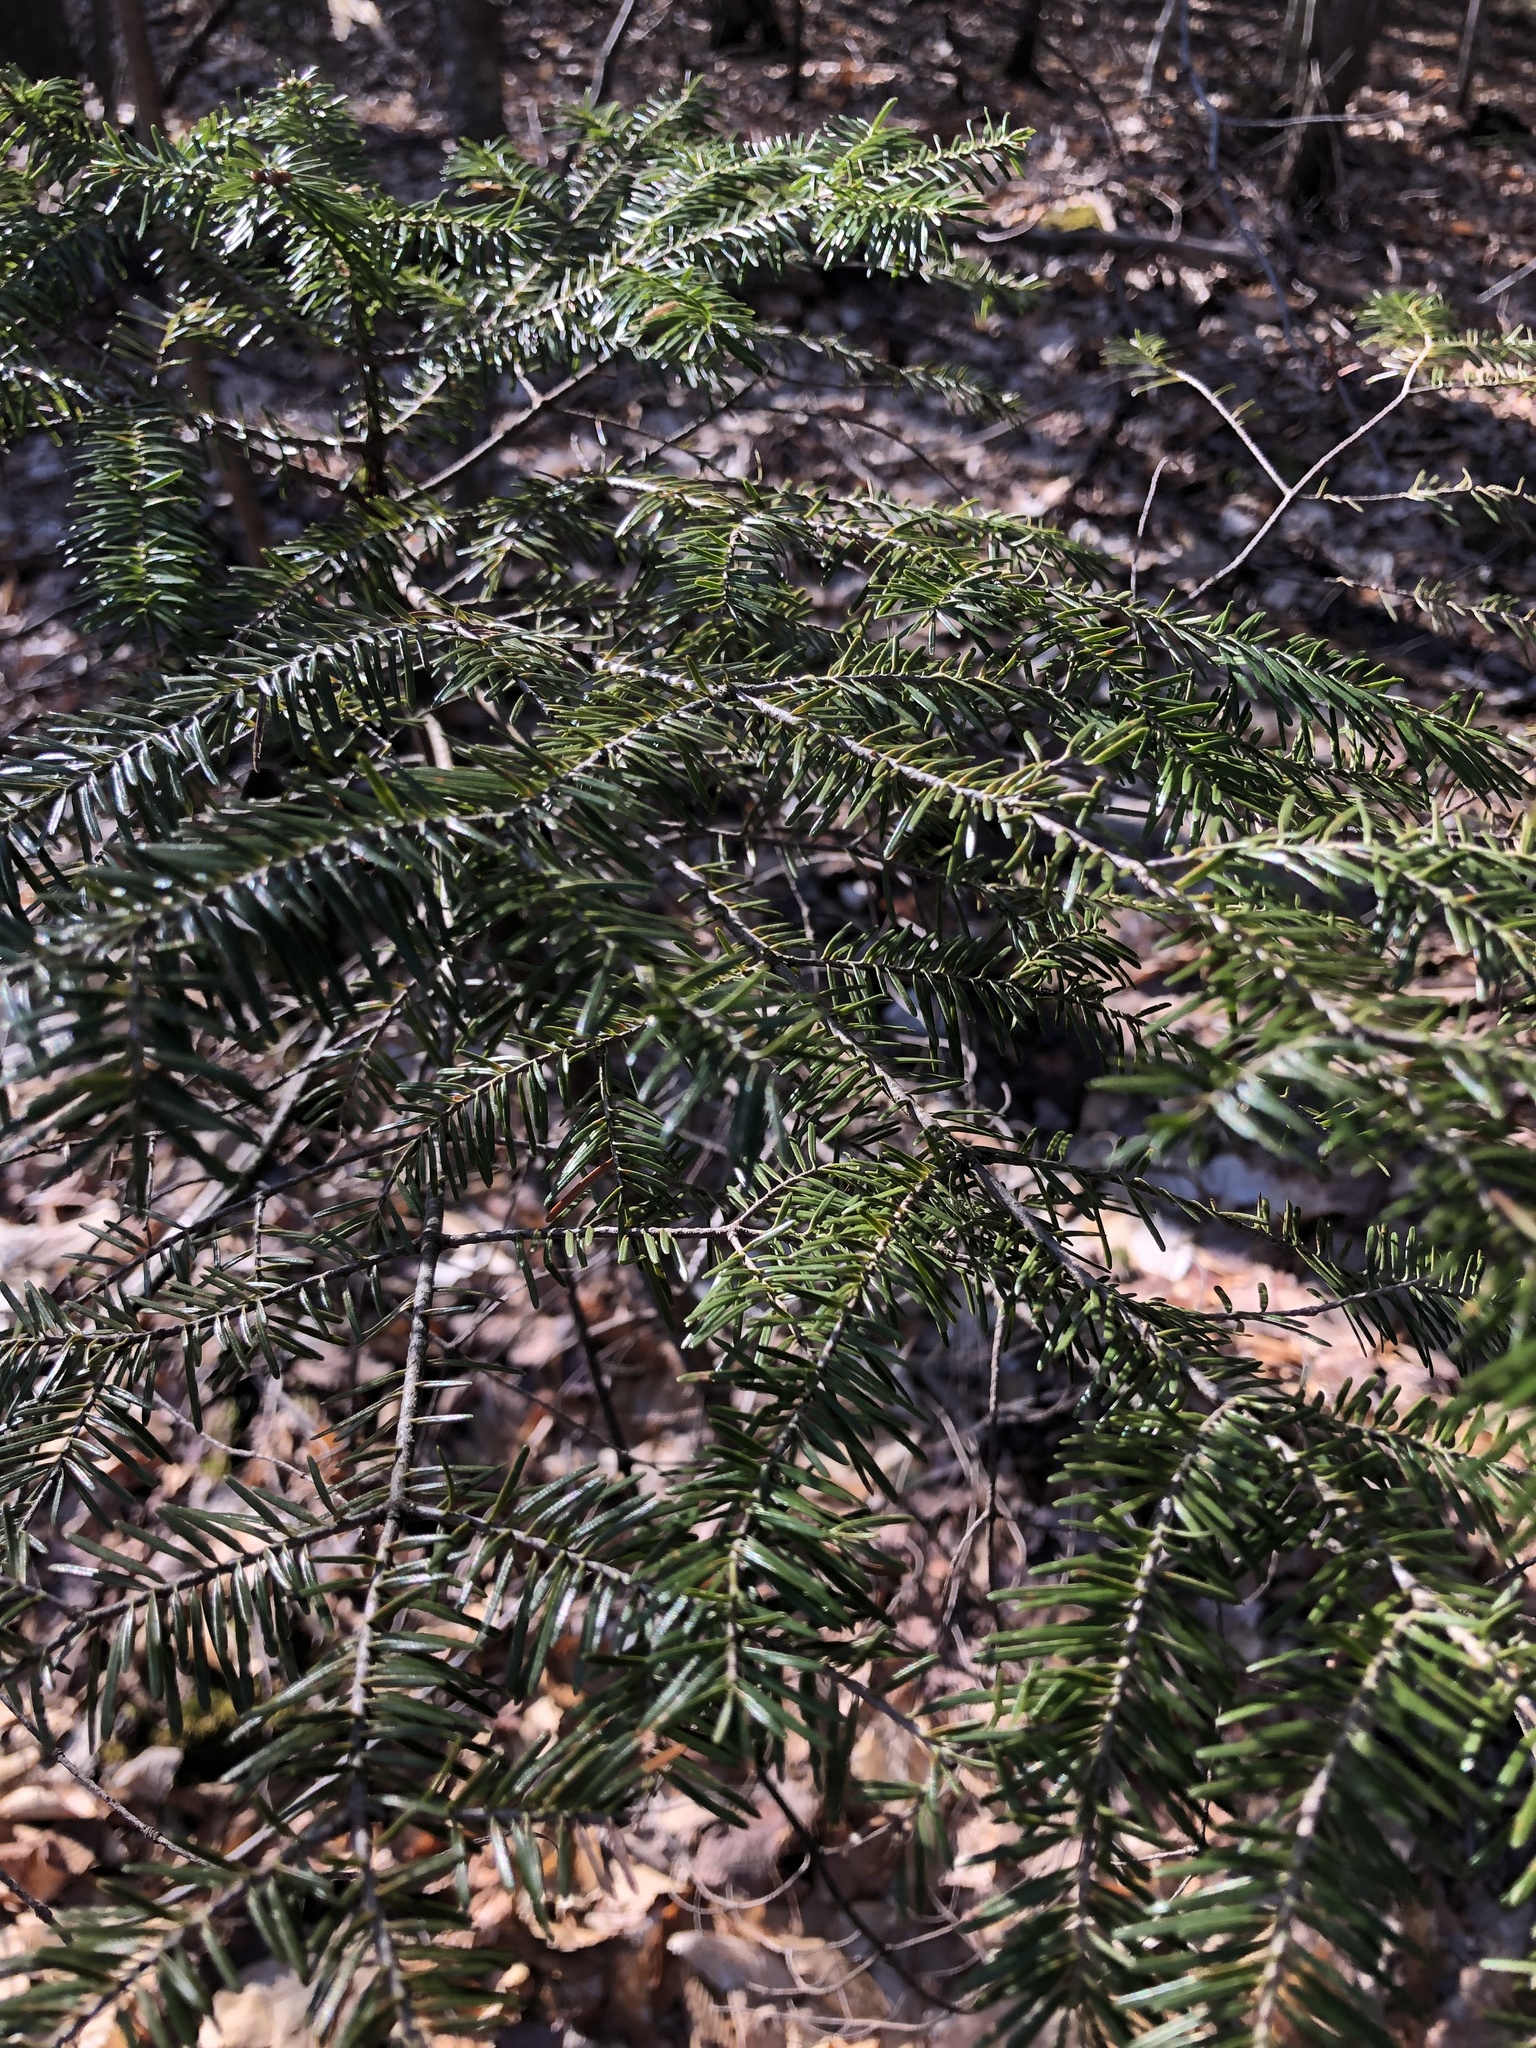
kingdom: Plantae
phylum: Tracheophyta
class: Pinopsida
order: Pinales
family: Pinaceae
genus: Abies
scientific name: Abies balsamea
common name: Balsam fir
